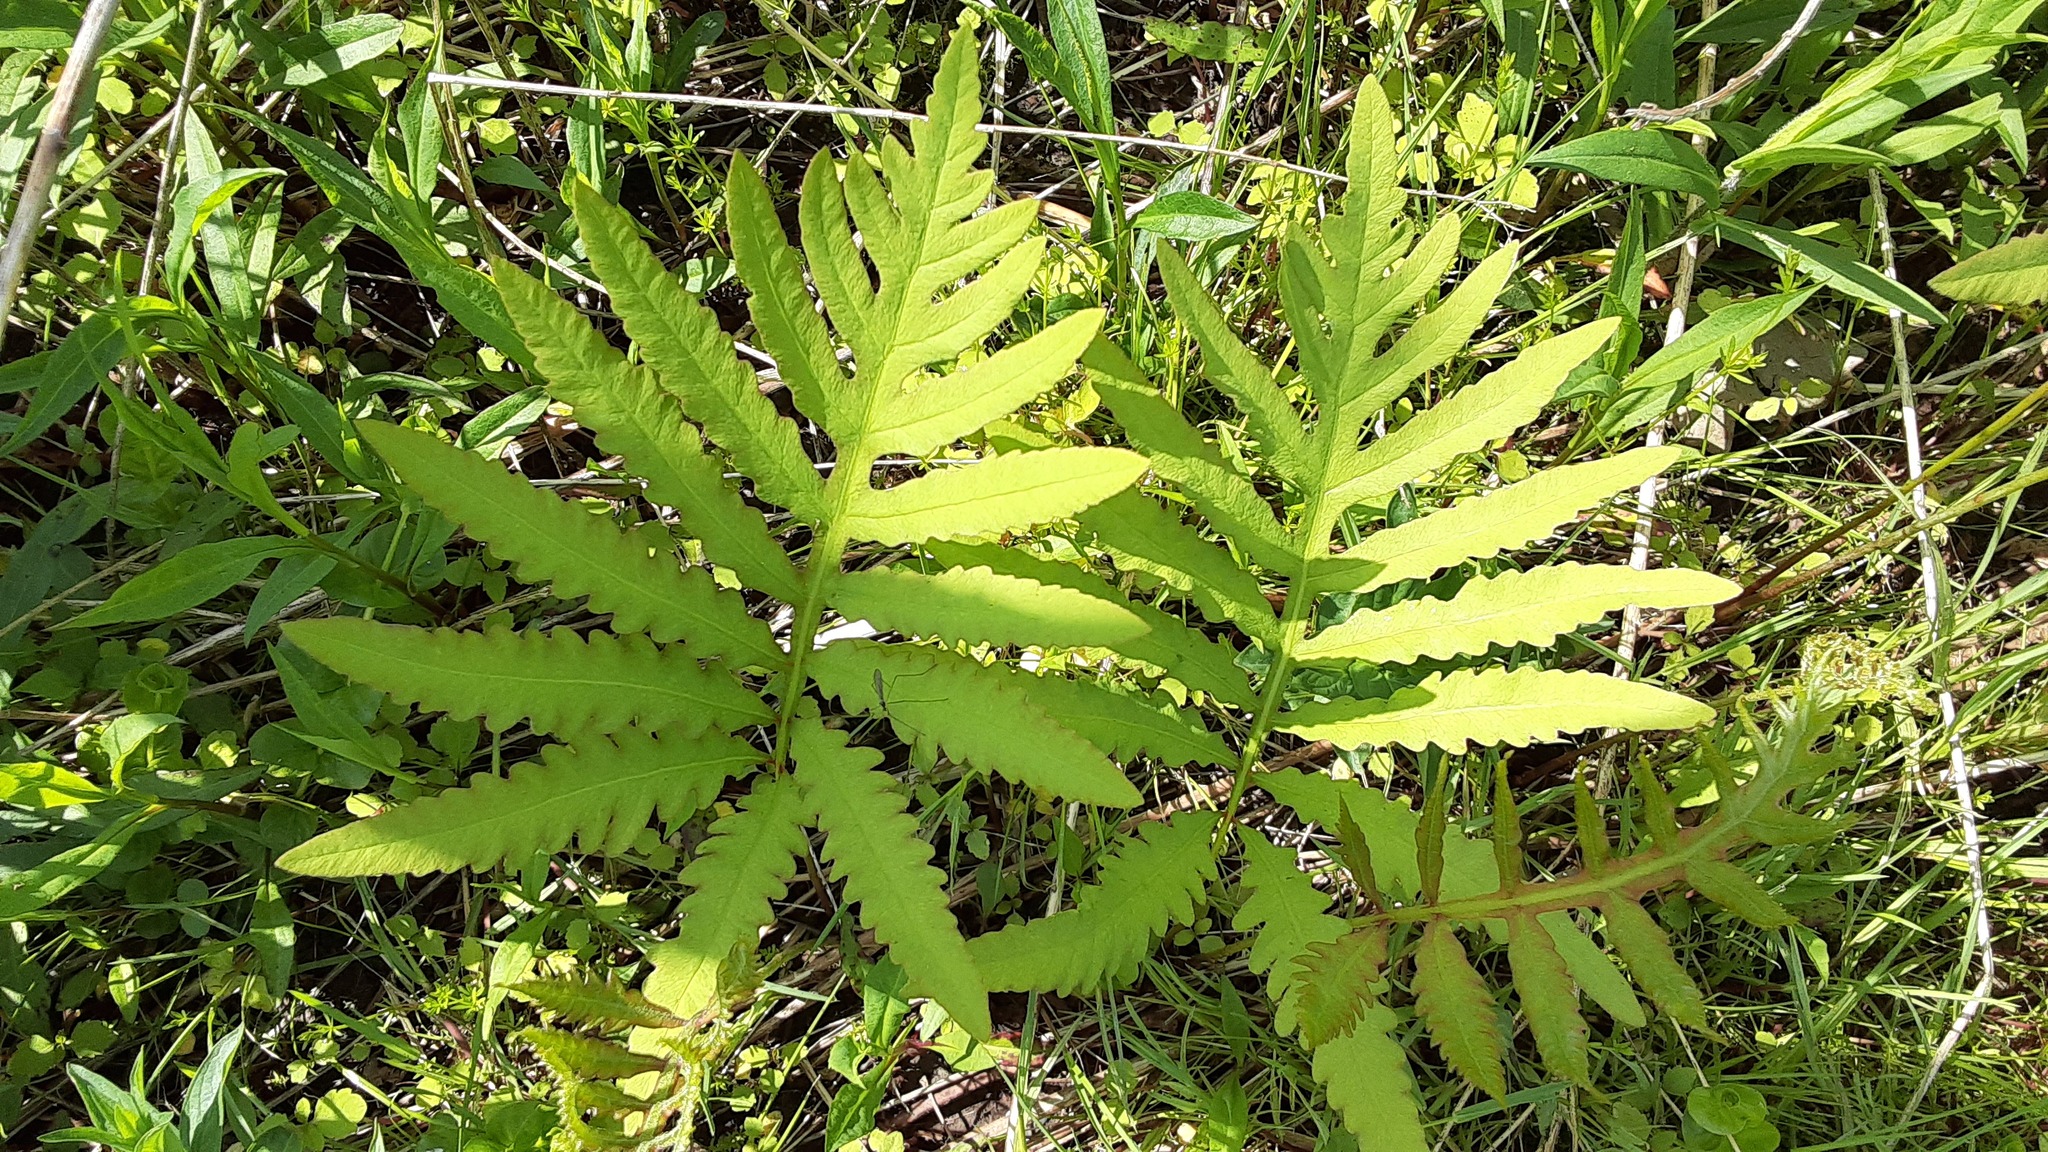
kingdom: Plantae
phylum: Tracheophyta
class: Polypodiopsida
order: Polypodiales
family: Onocleaceae
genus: Onoclea
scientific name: Onoclea sensibilis
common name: Sensitive fern
